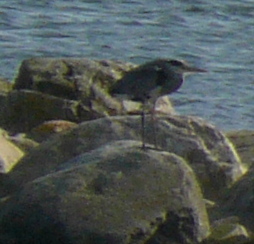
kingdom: Animalia
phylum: Chordata
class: Aves
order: Pelecaniformes
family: Ardeidae
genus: Ardea
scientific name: Ardea cinerea
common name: Grey heron
